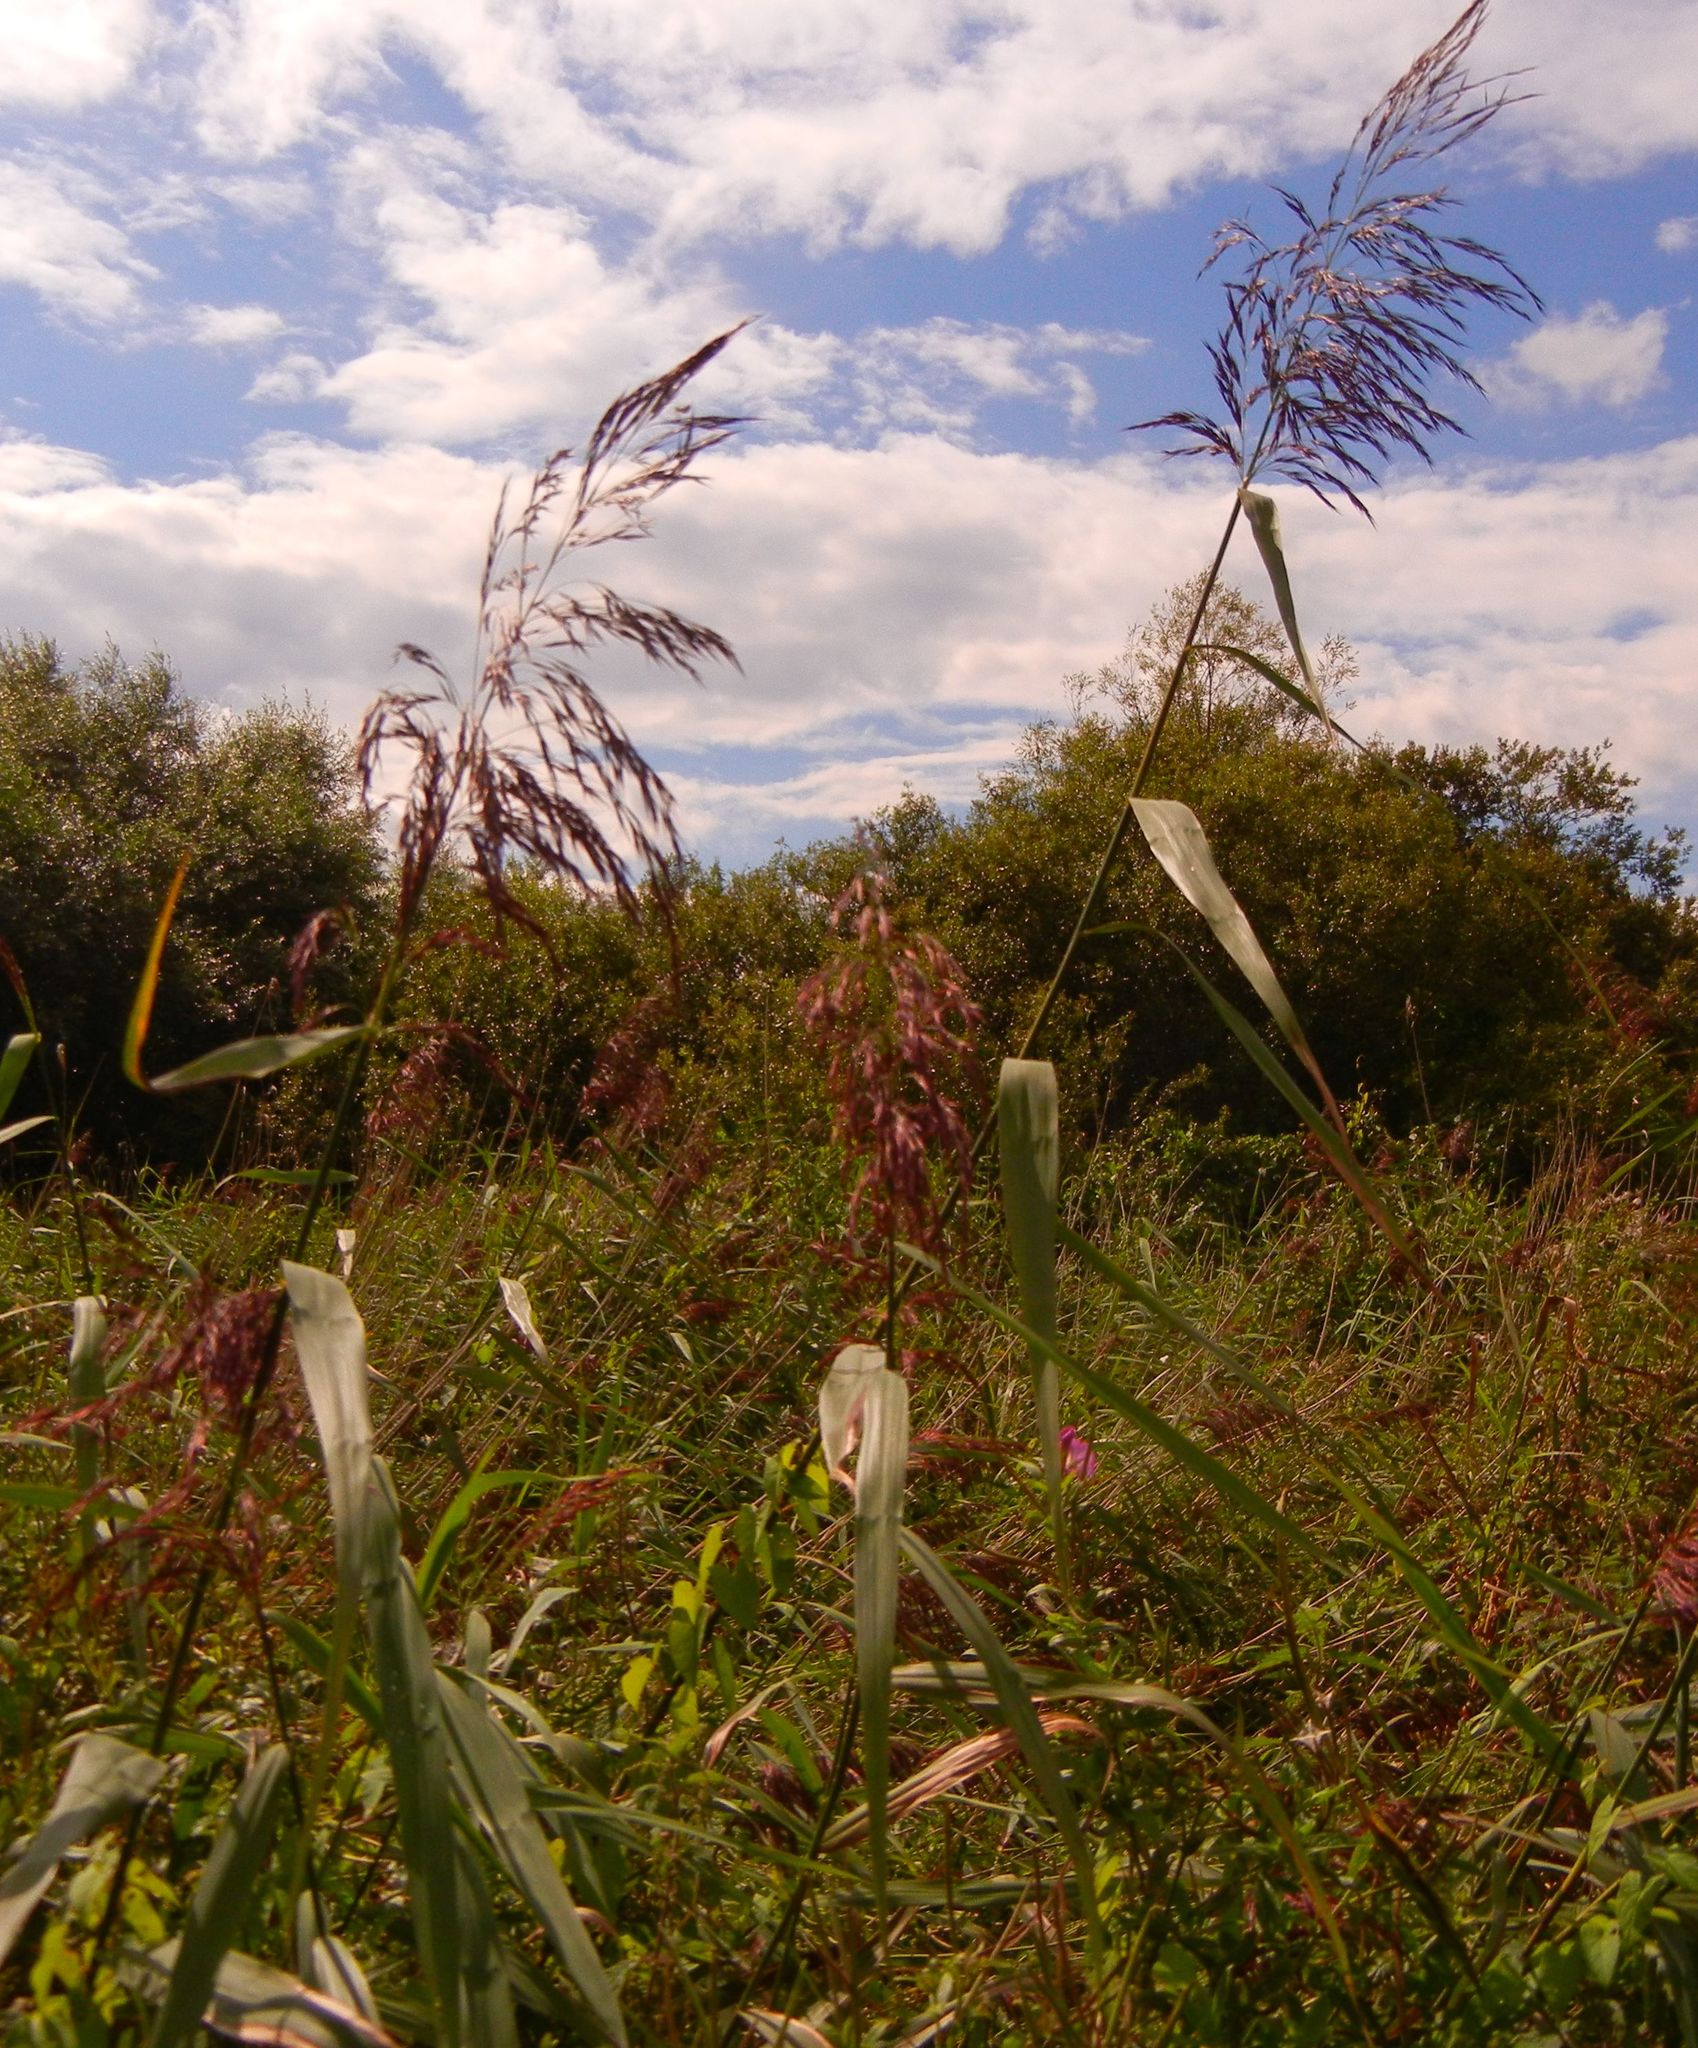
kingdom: Plantae
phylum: Tracheophyta
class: Liliopsida
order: Poales
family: Poaceae
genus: Phragmites
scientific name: Phragmites australis
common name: Common reed
